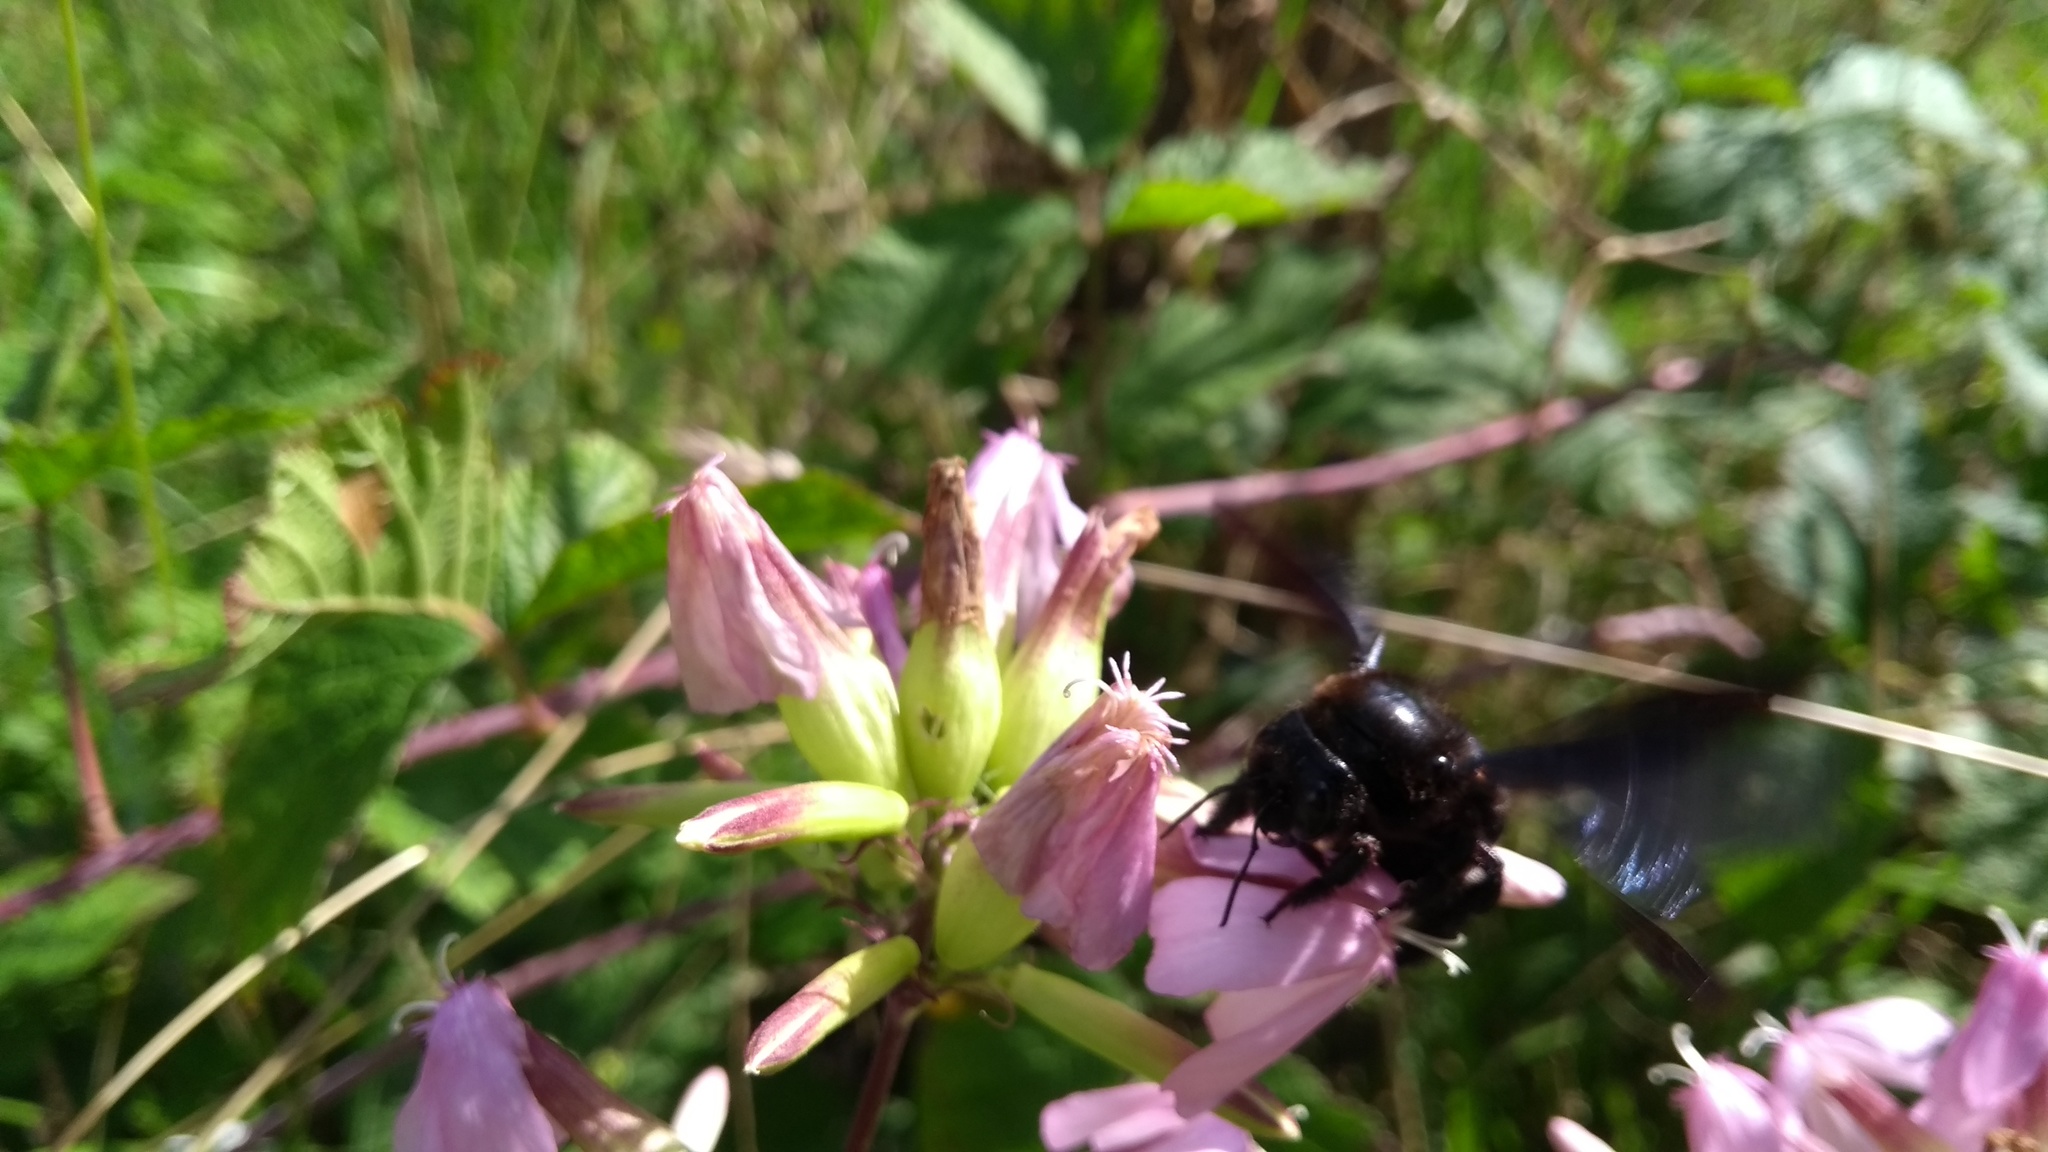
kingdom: Animalia
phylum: Arthropoda
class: Insecta
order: Hymenoptera
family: Apidae
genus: Xylocopa
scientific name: Xylocopa
